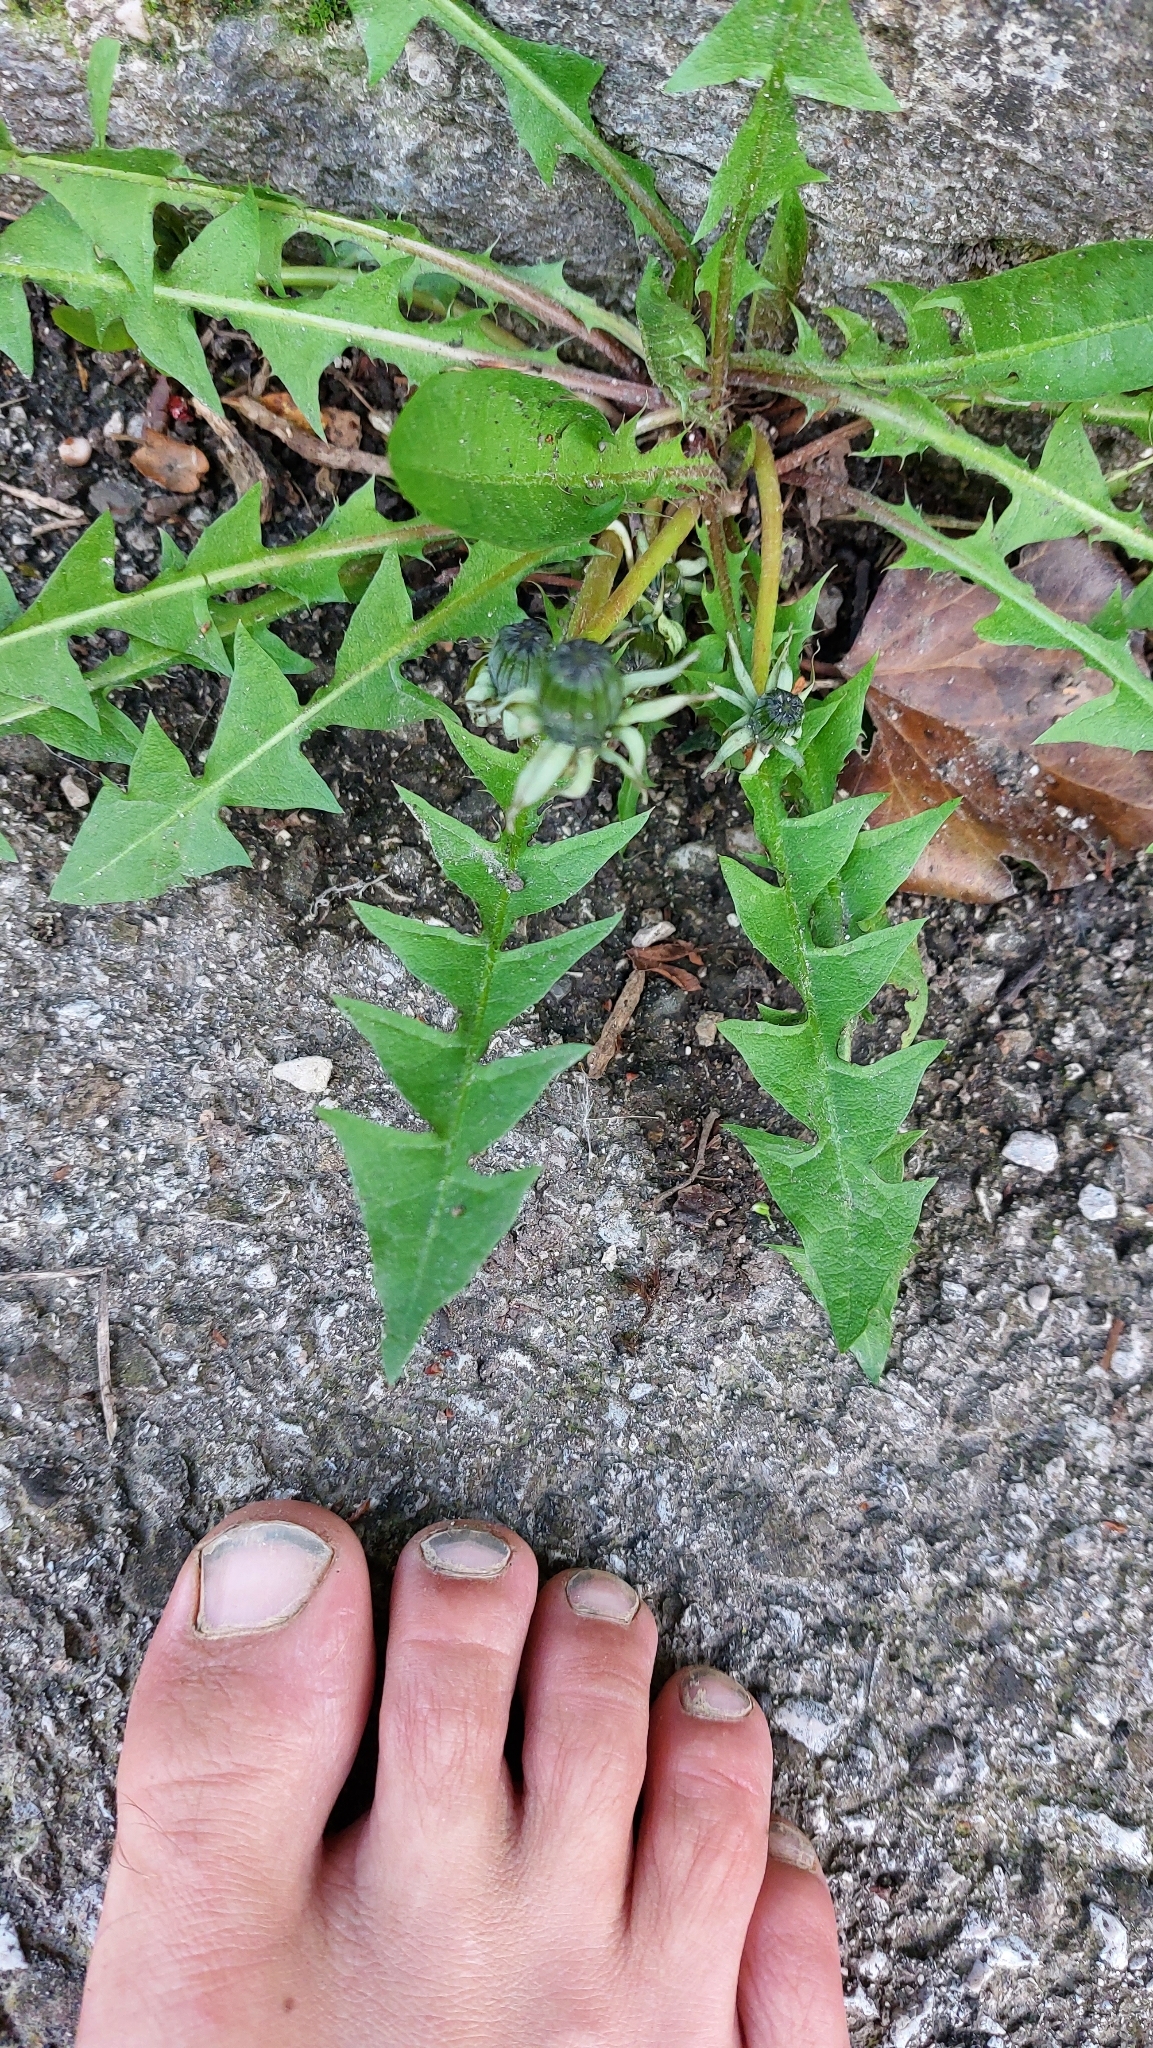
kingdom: Plantae
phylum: Tracheophyta
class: Magnoliopsida
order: Asterales
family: Asteraceae
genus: Taraxacum
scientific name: Taraxacum
